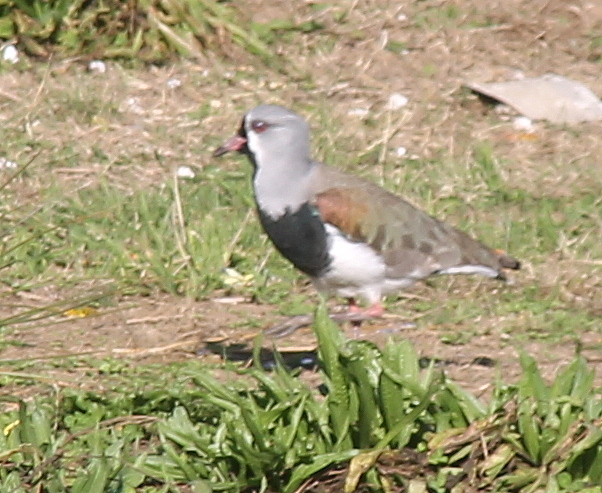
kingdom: Animalia
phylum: Chordata
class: Aves
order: Charadriiformes
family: Charadriidae
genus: Vanellus
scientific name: Vanellus chilensis
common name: Southern lapwing
